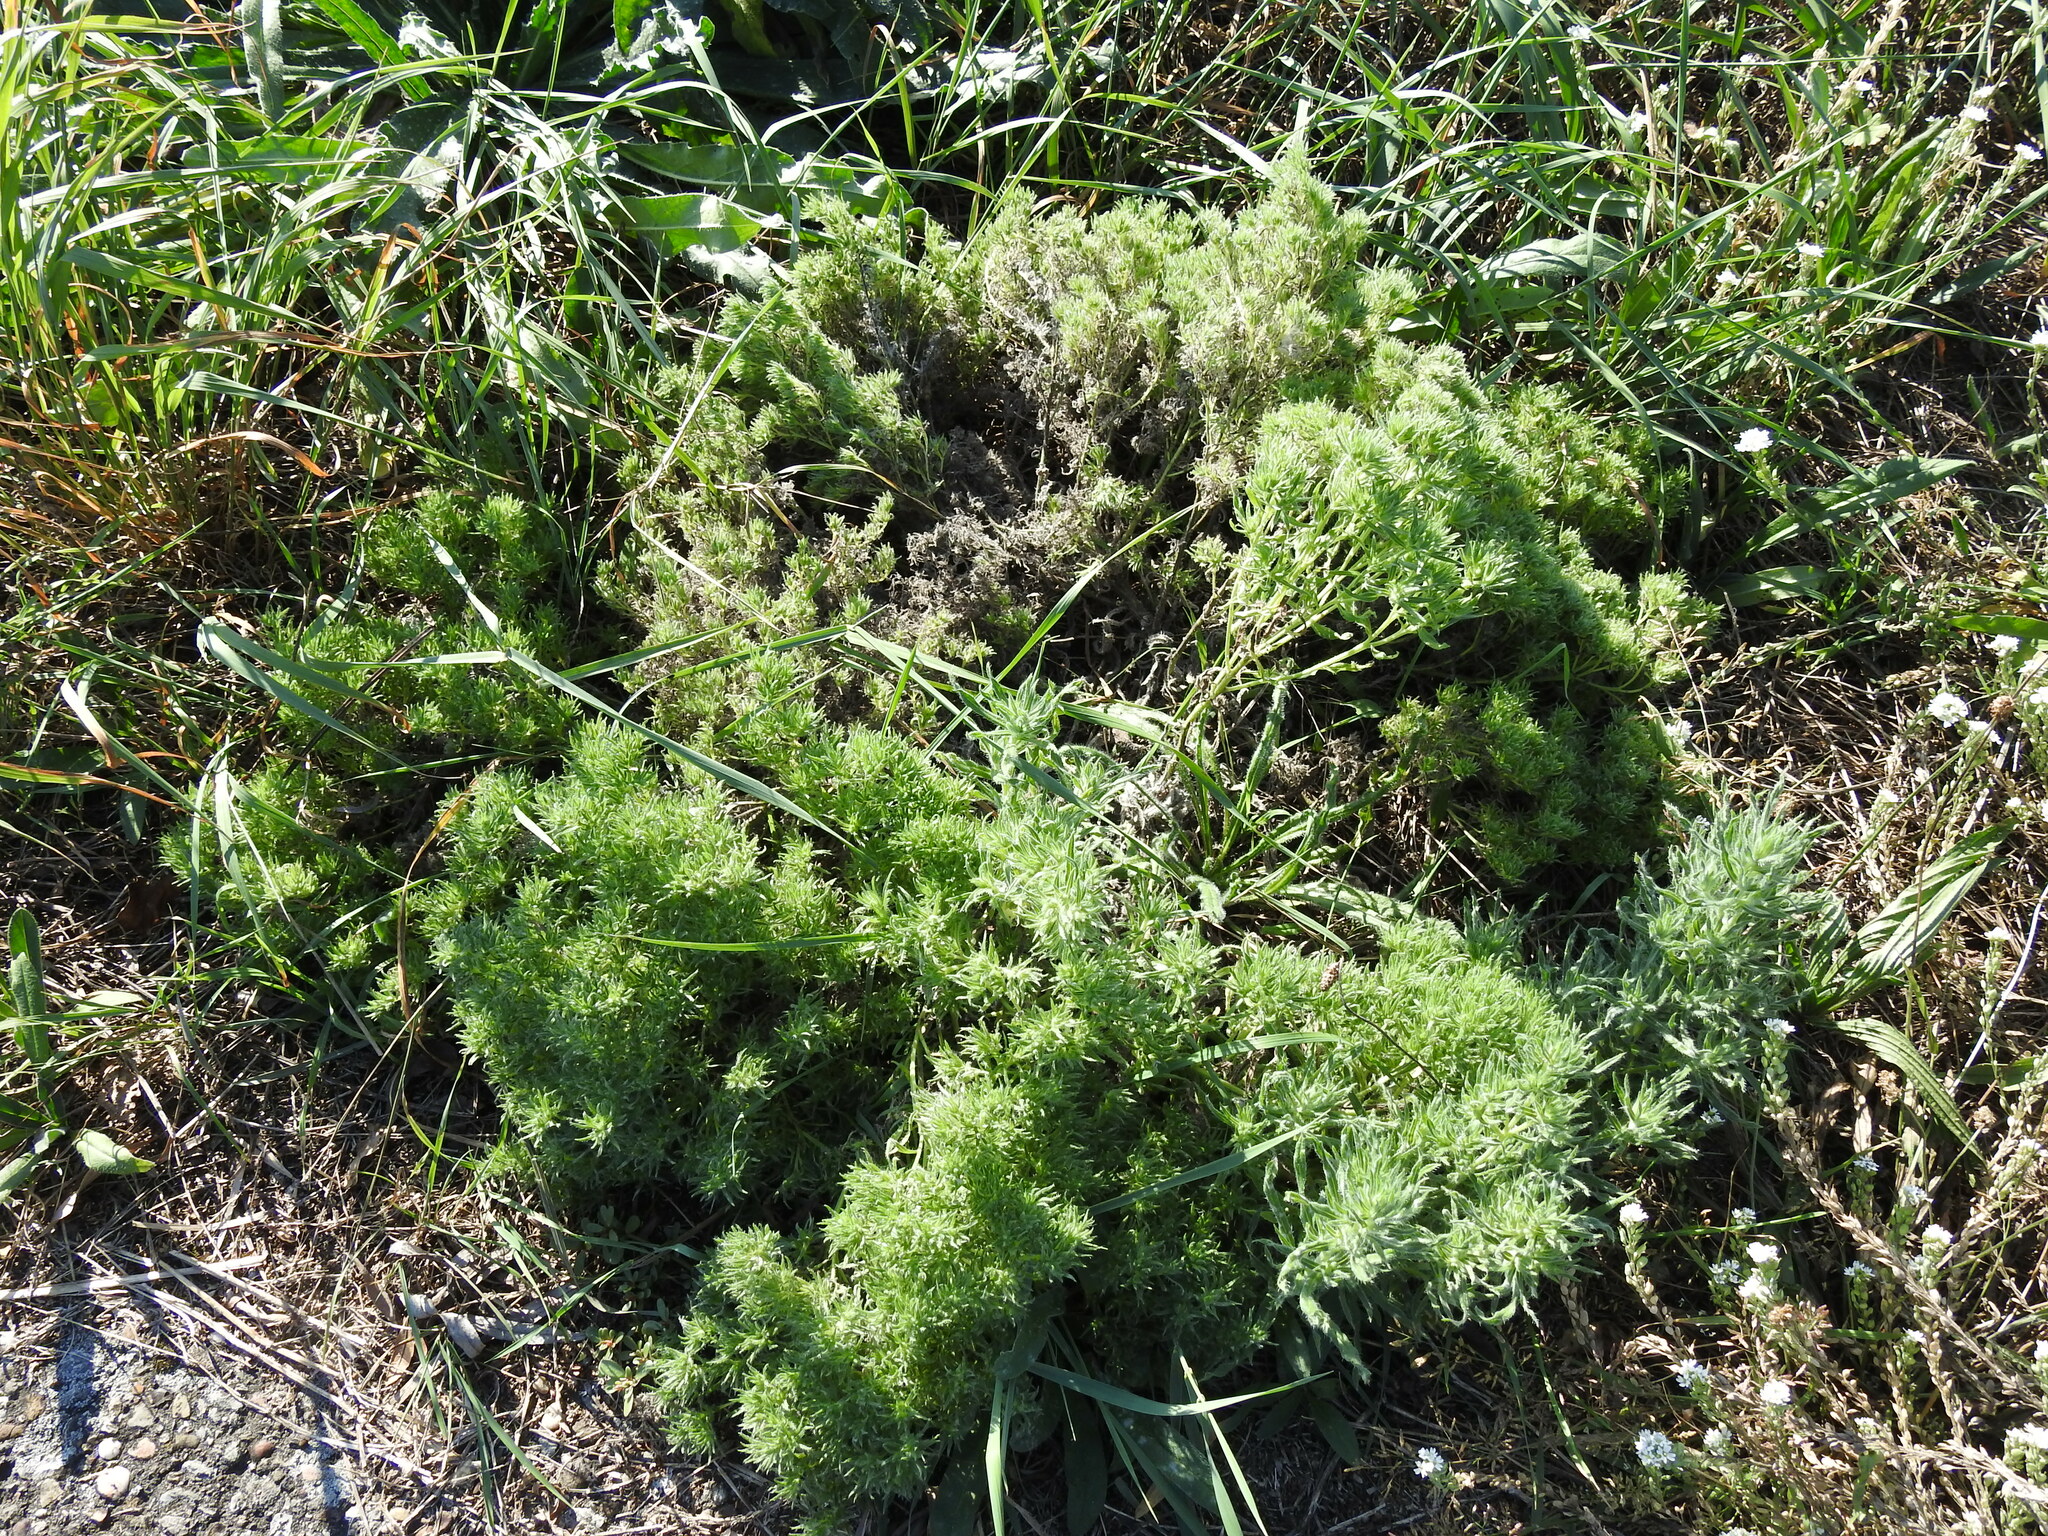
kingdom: Animalia
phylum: Arthropoda
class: Arachnida
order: Trombidiformes
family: Eriophyidae
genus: Aceria
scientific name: Aceria echii
